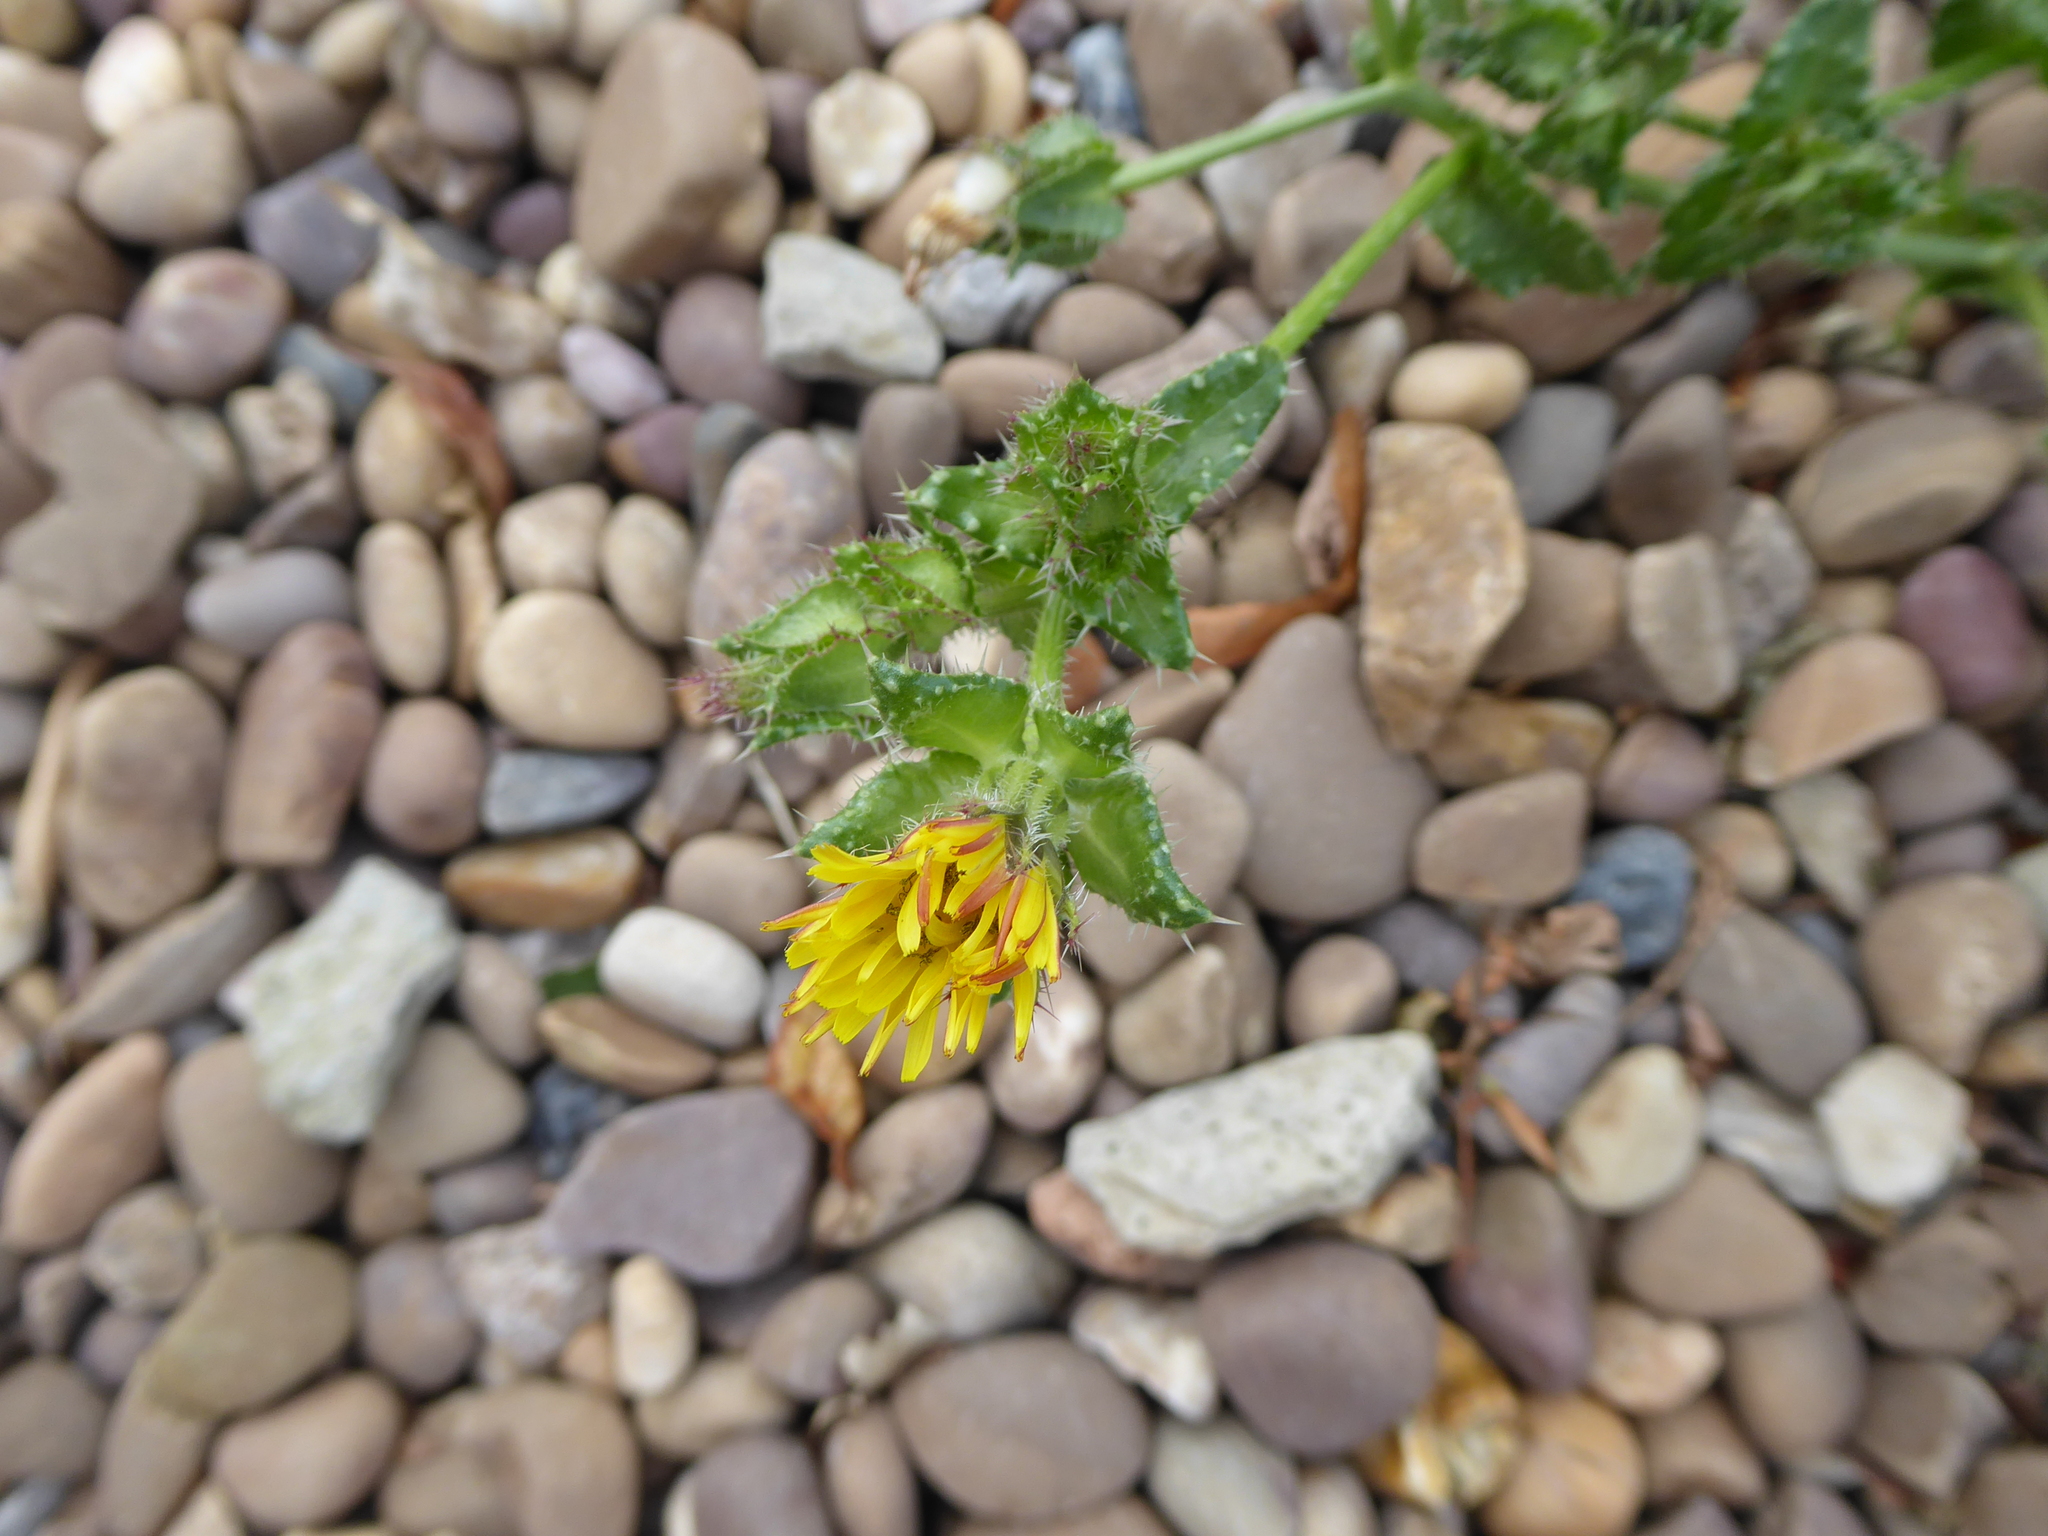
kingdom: Plantae
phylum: Tracheophyta
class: Magnoliopsida
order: Asterales
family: Asteraceae
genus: Helminthotheca
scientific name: Helminthotheca echioides
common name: Ox-tongue
